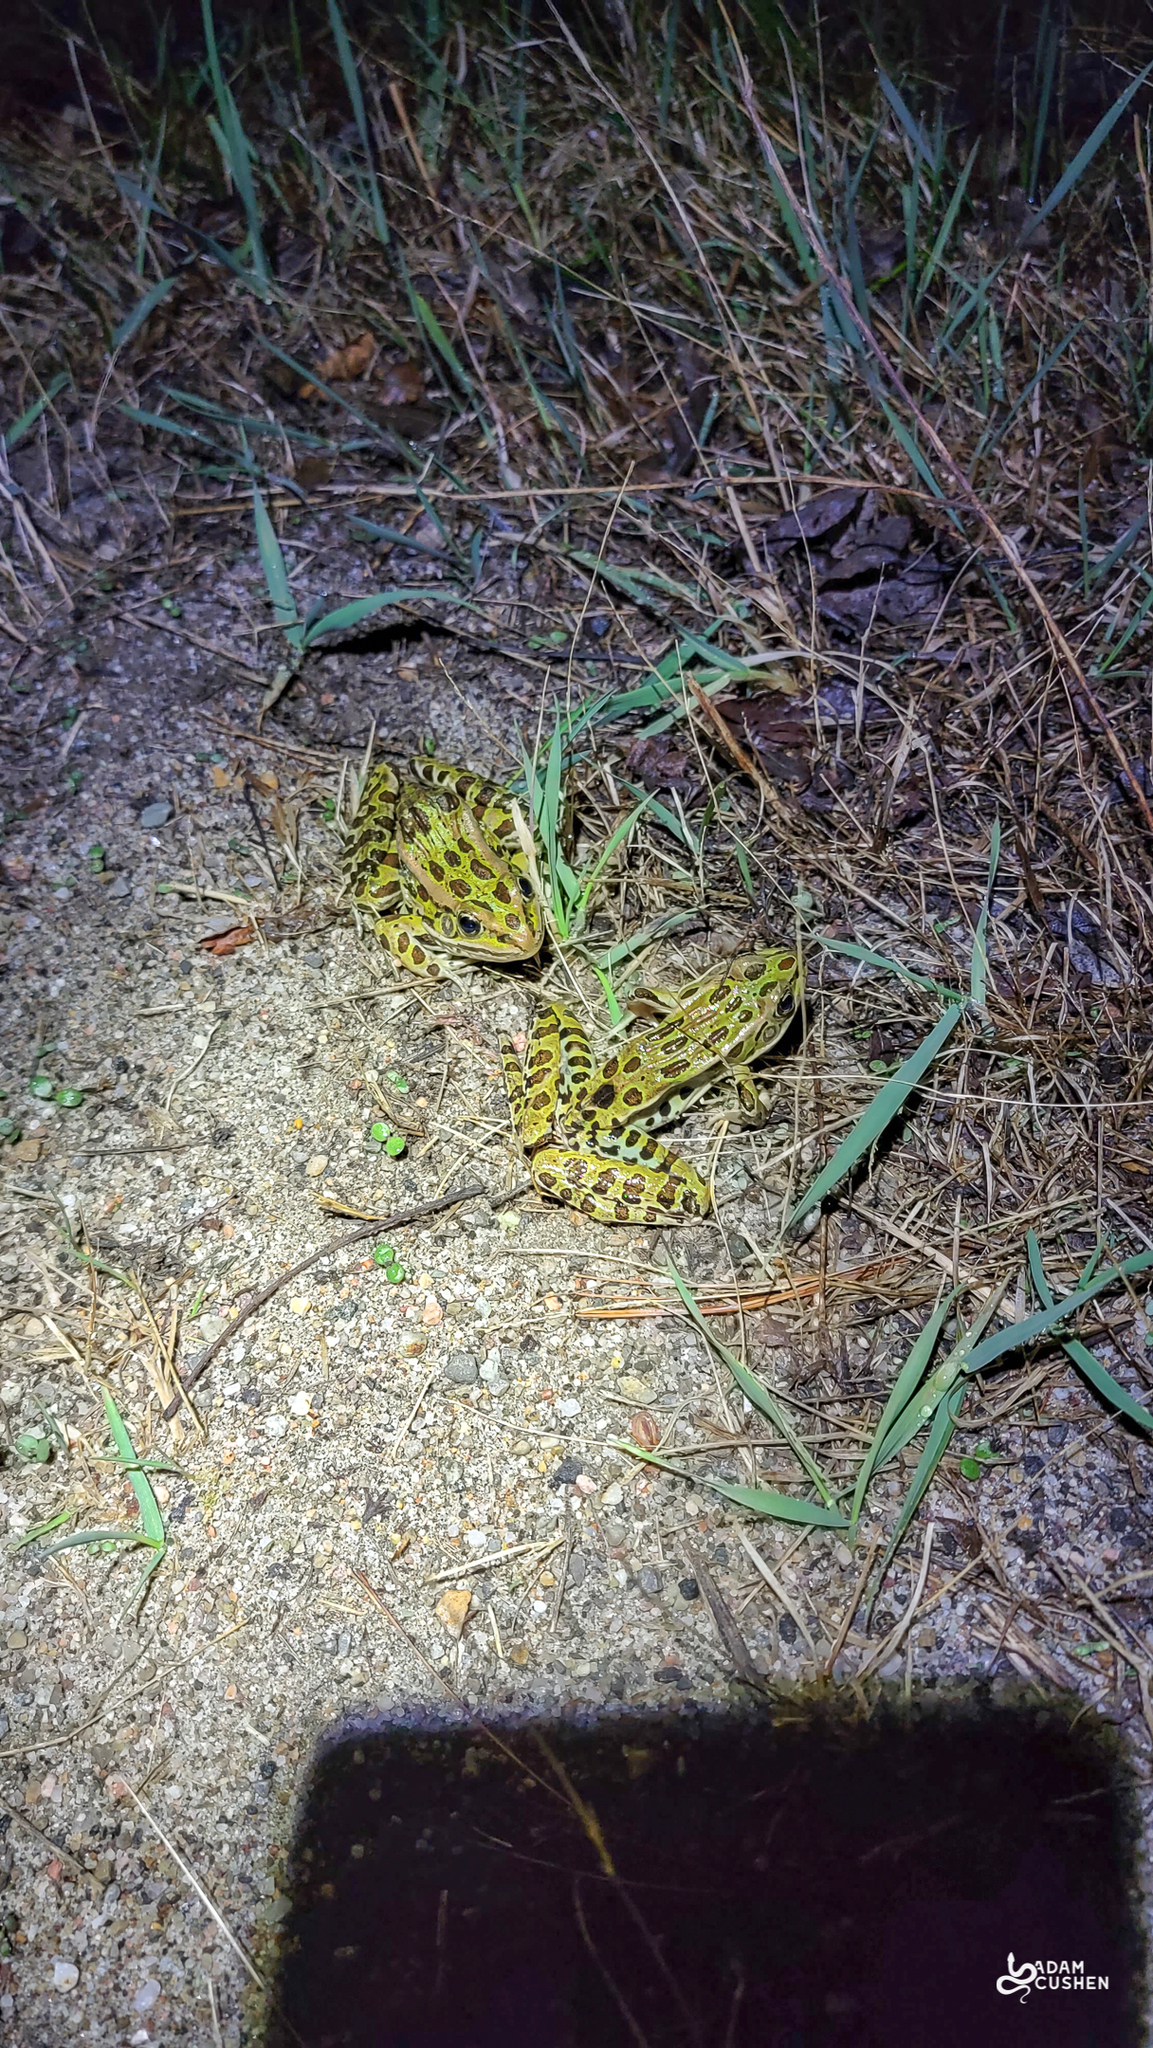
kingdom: Animalia
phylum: Chordata
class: Amphibia
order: Anura
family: Ranidae
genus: Lithobates
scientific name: Lithobates pipiens
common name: Northern leopard frog
